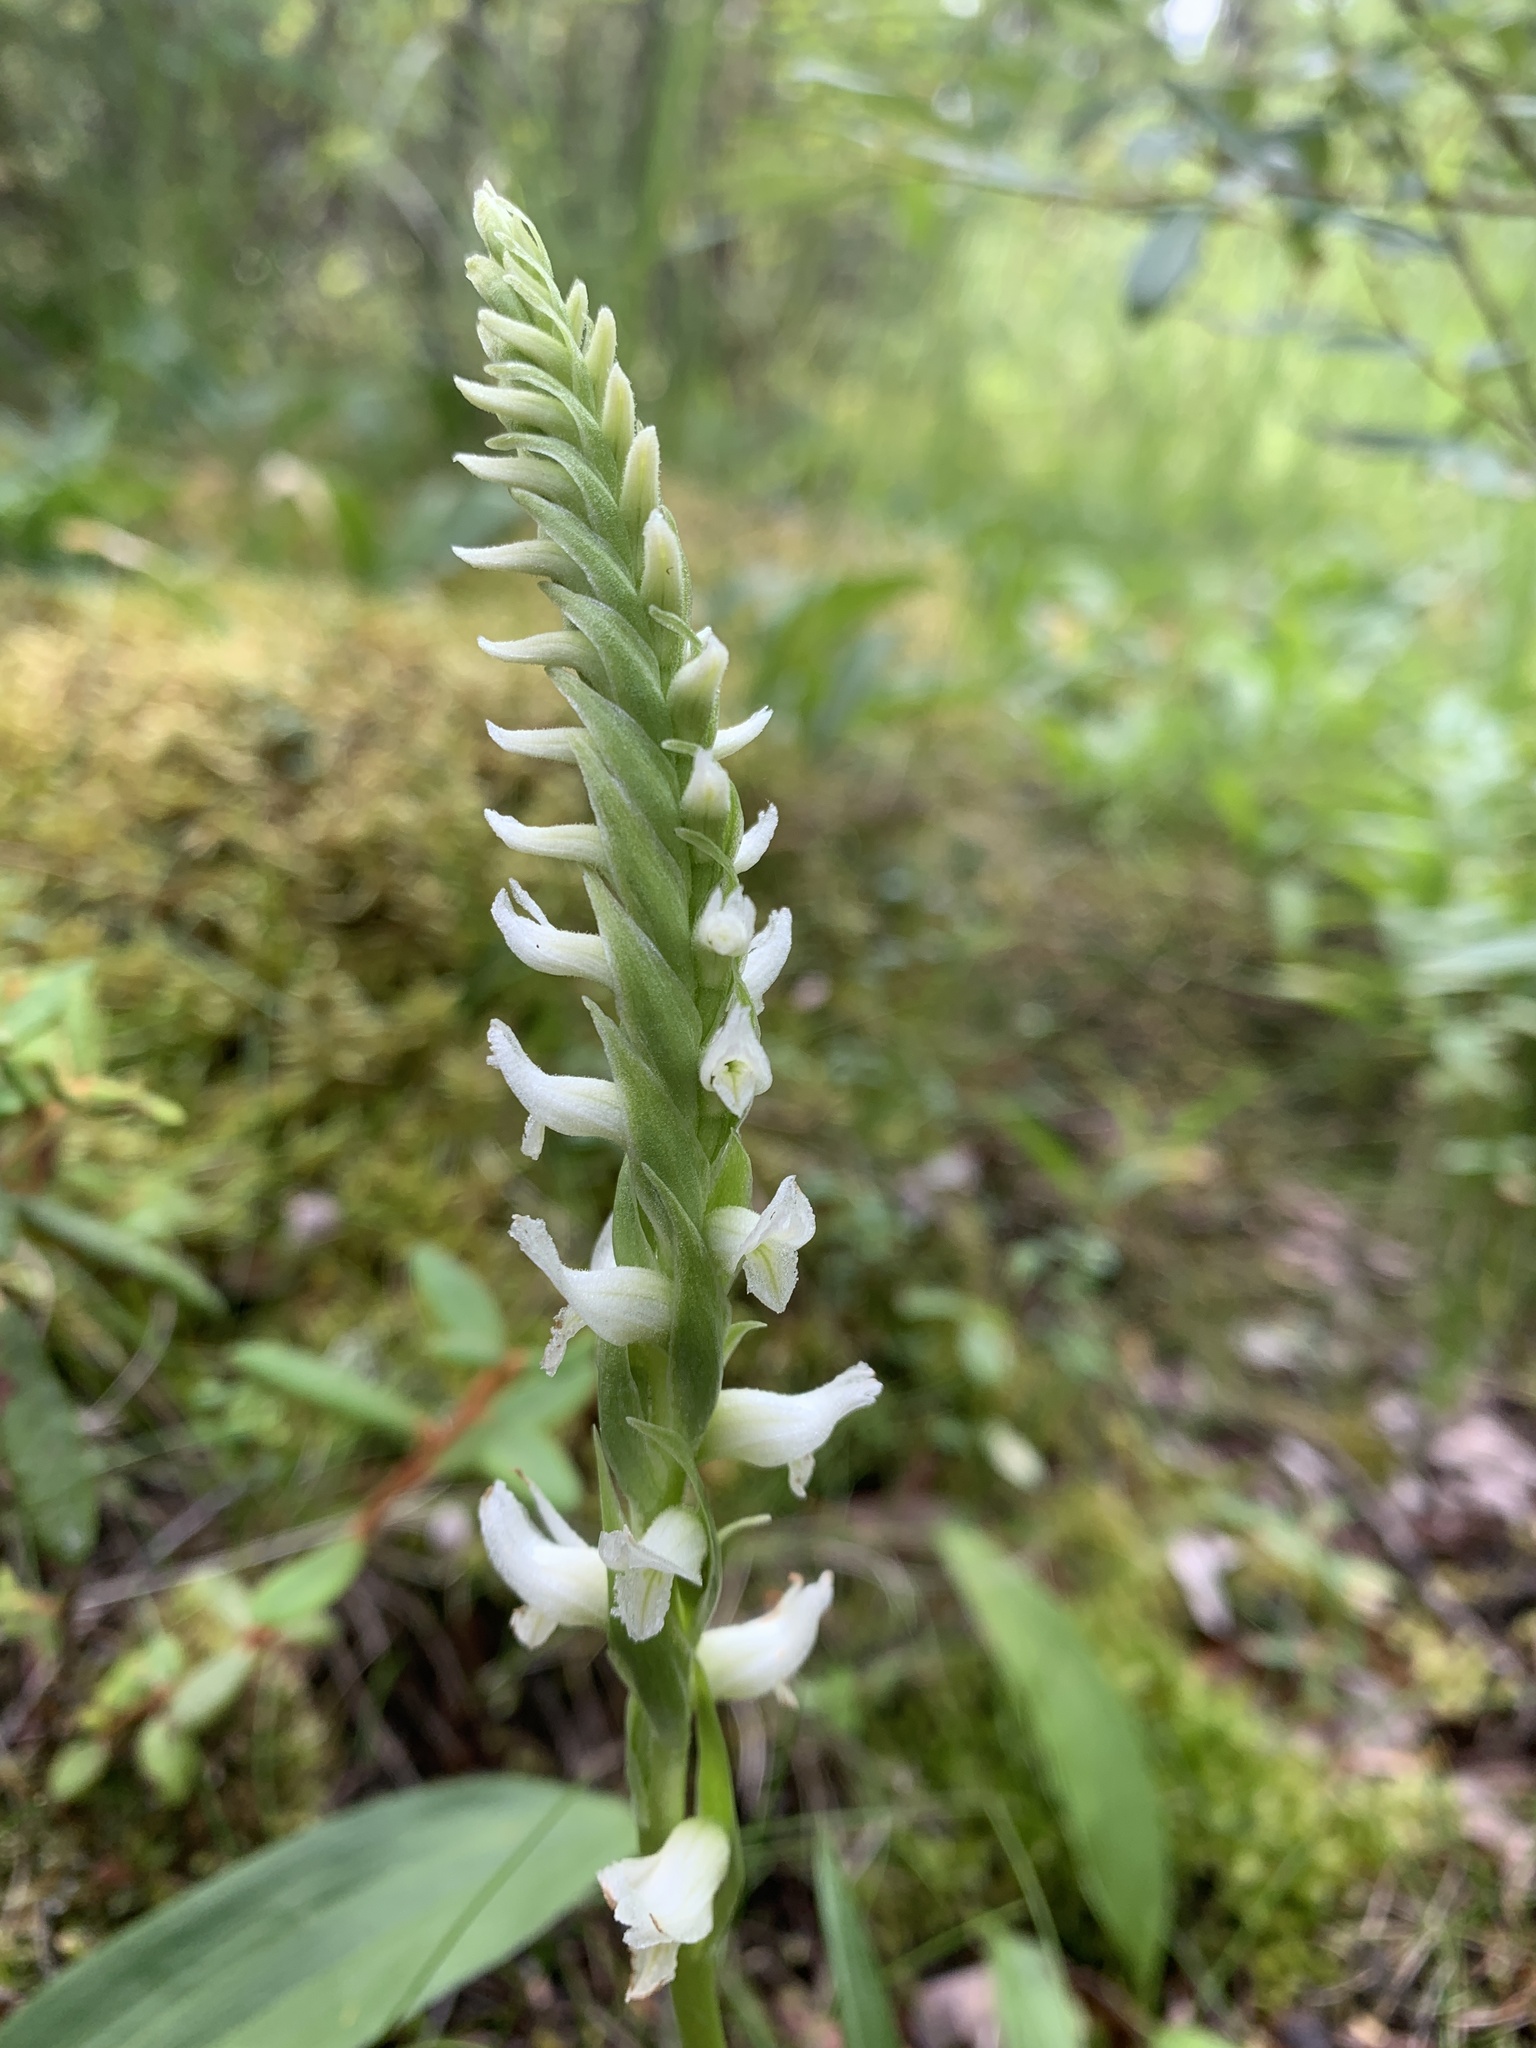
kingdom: Plantae
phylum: Tracheophyta
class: Liliopsida
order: Asparagales
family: Orchidaceae
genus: Spiranthes
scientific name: Spiranthes romanzoffiana
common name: Irish lady's-tresses
